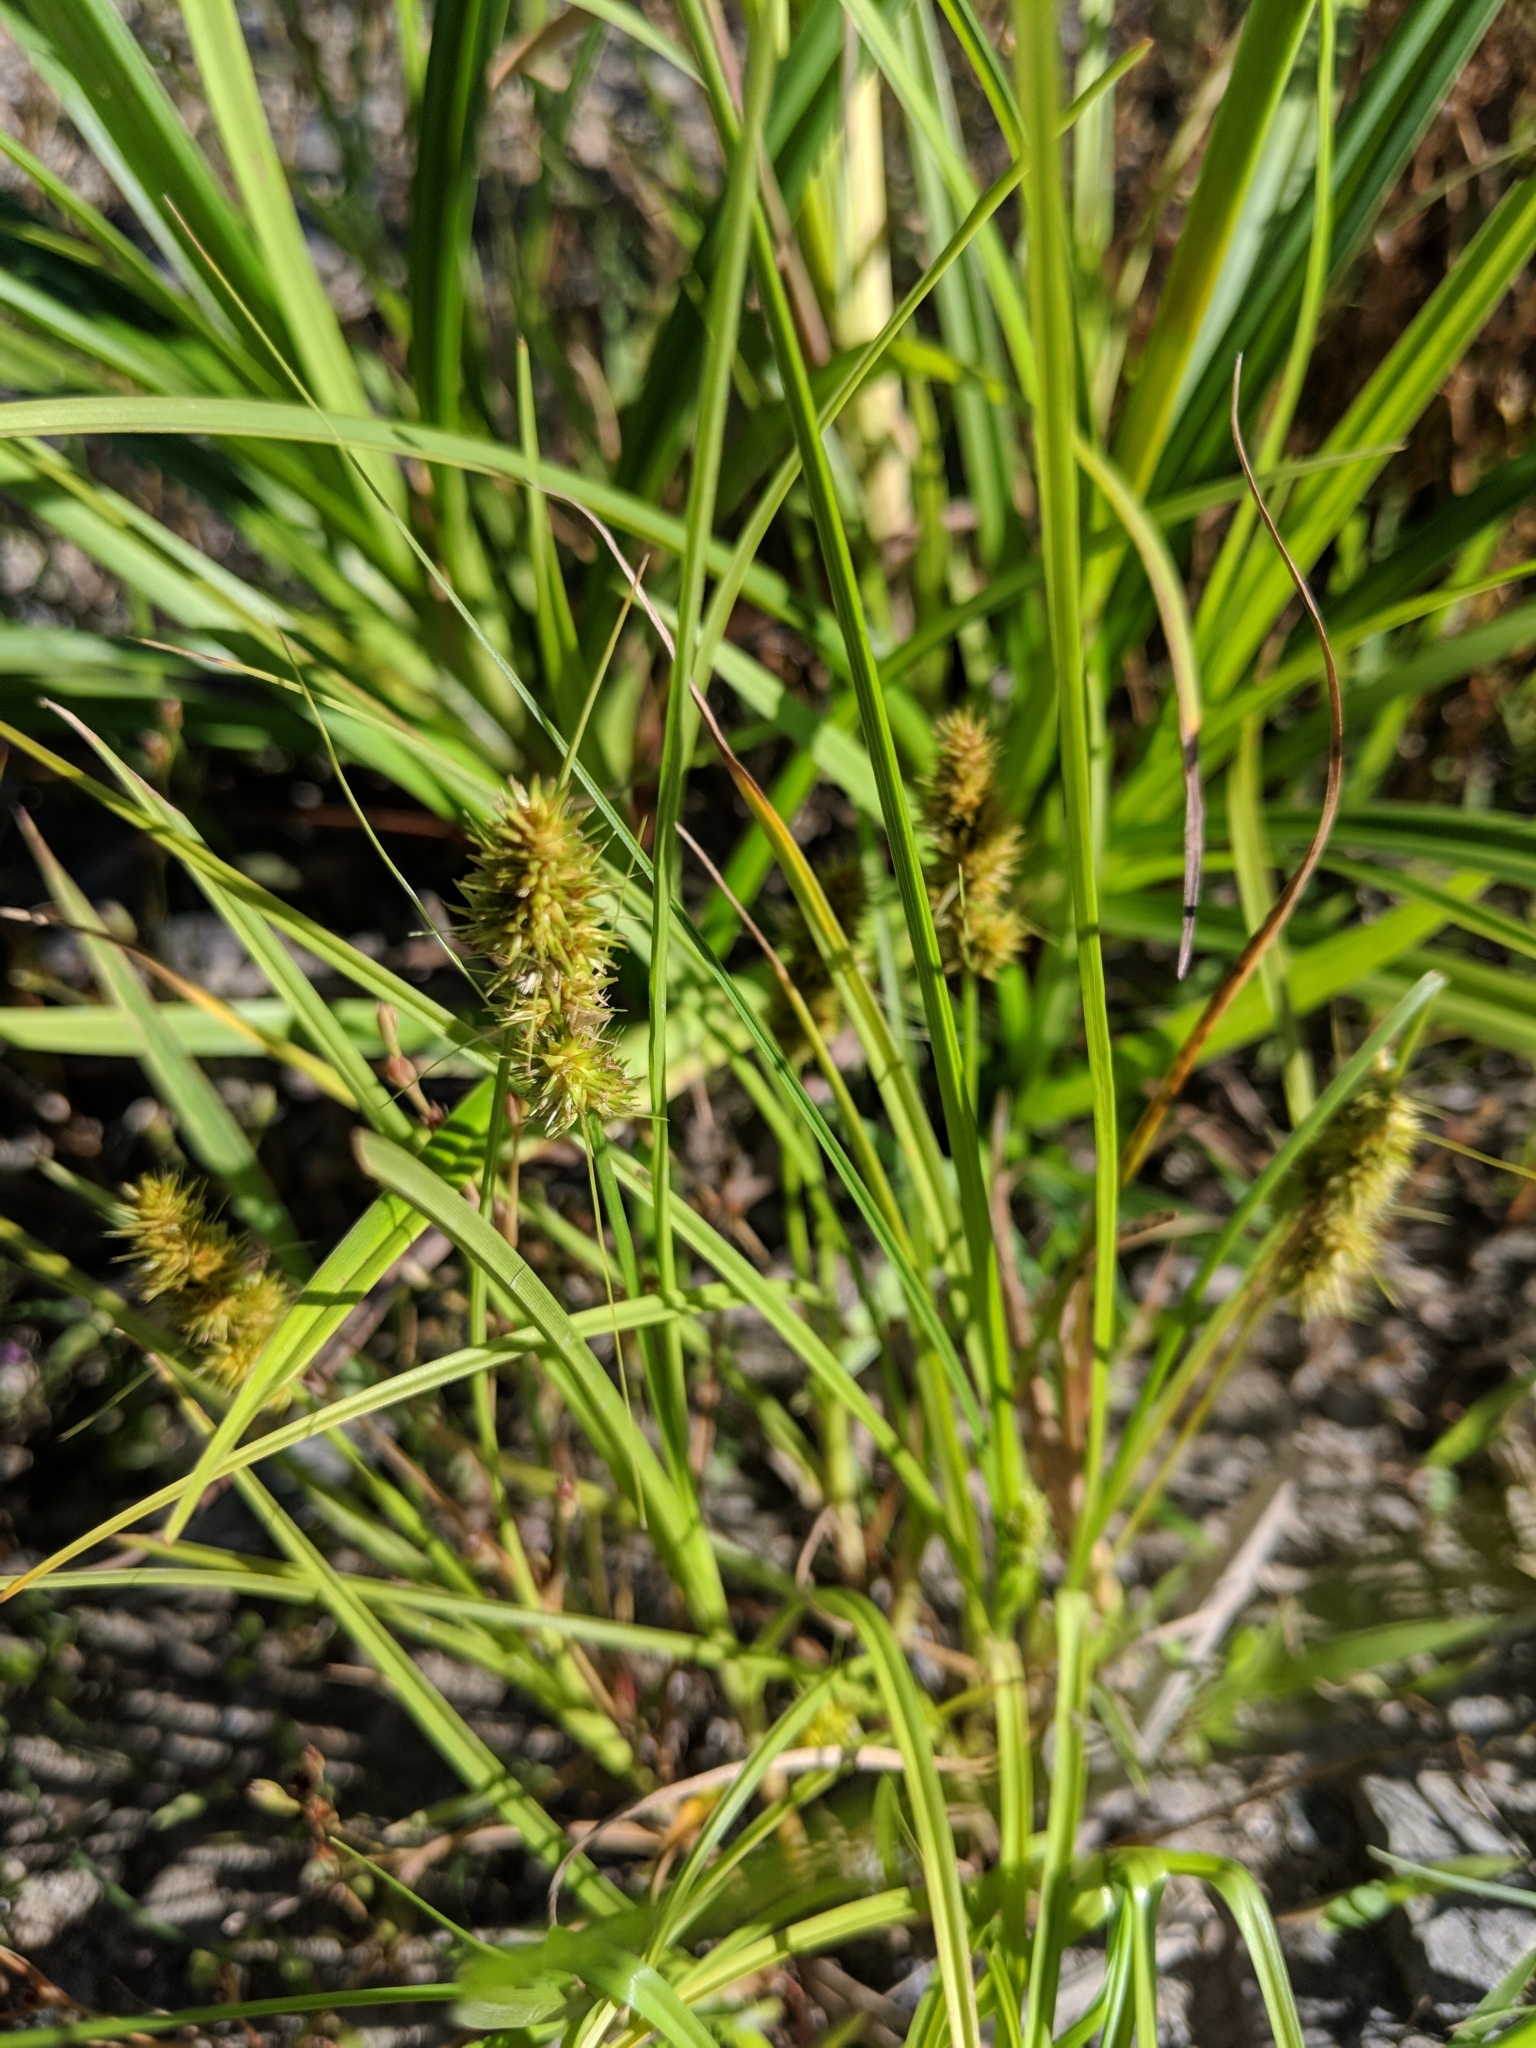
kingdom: Plantae
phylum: Tracheophyta
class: Liliopsida
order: Poales
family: Cyperaceae
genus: Scirpus
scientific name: Scirpus atrovirens
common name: Black bulrush
